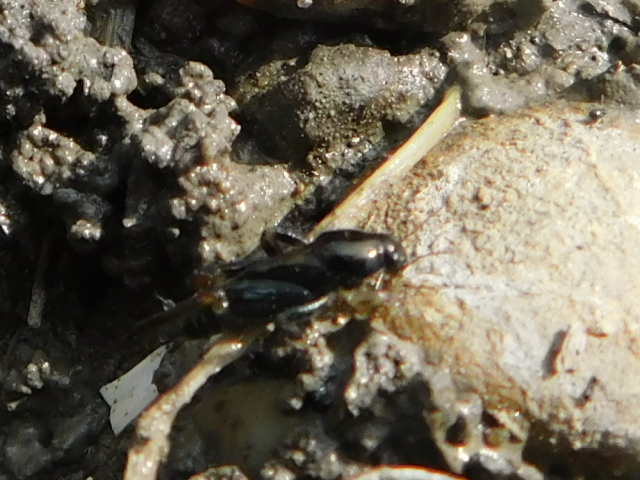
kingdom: Animalia
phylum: Arthropoda
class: Insecta
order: Orthoptera
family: Tridactylidae
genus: Neotridactylus
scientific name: Neotridactylus apicialis
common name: Larger pygmy locust
